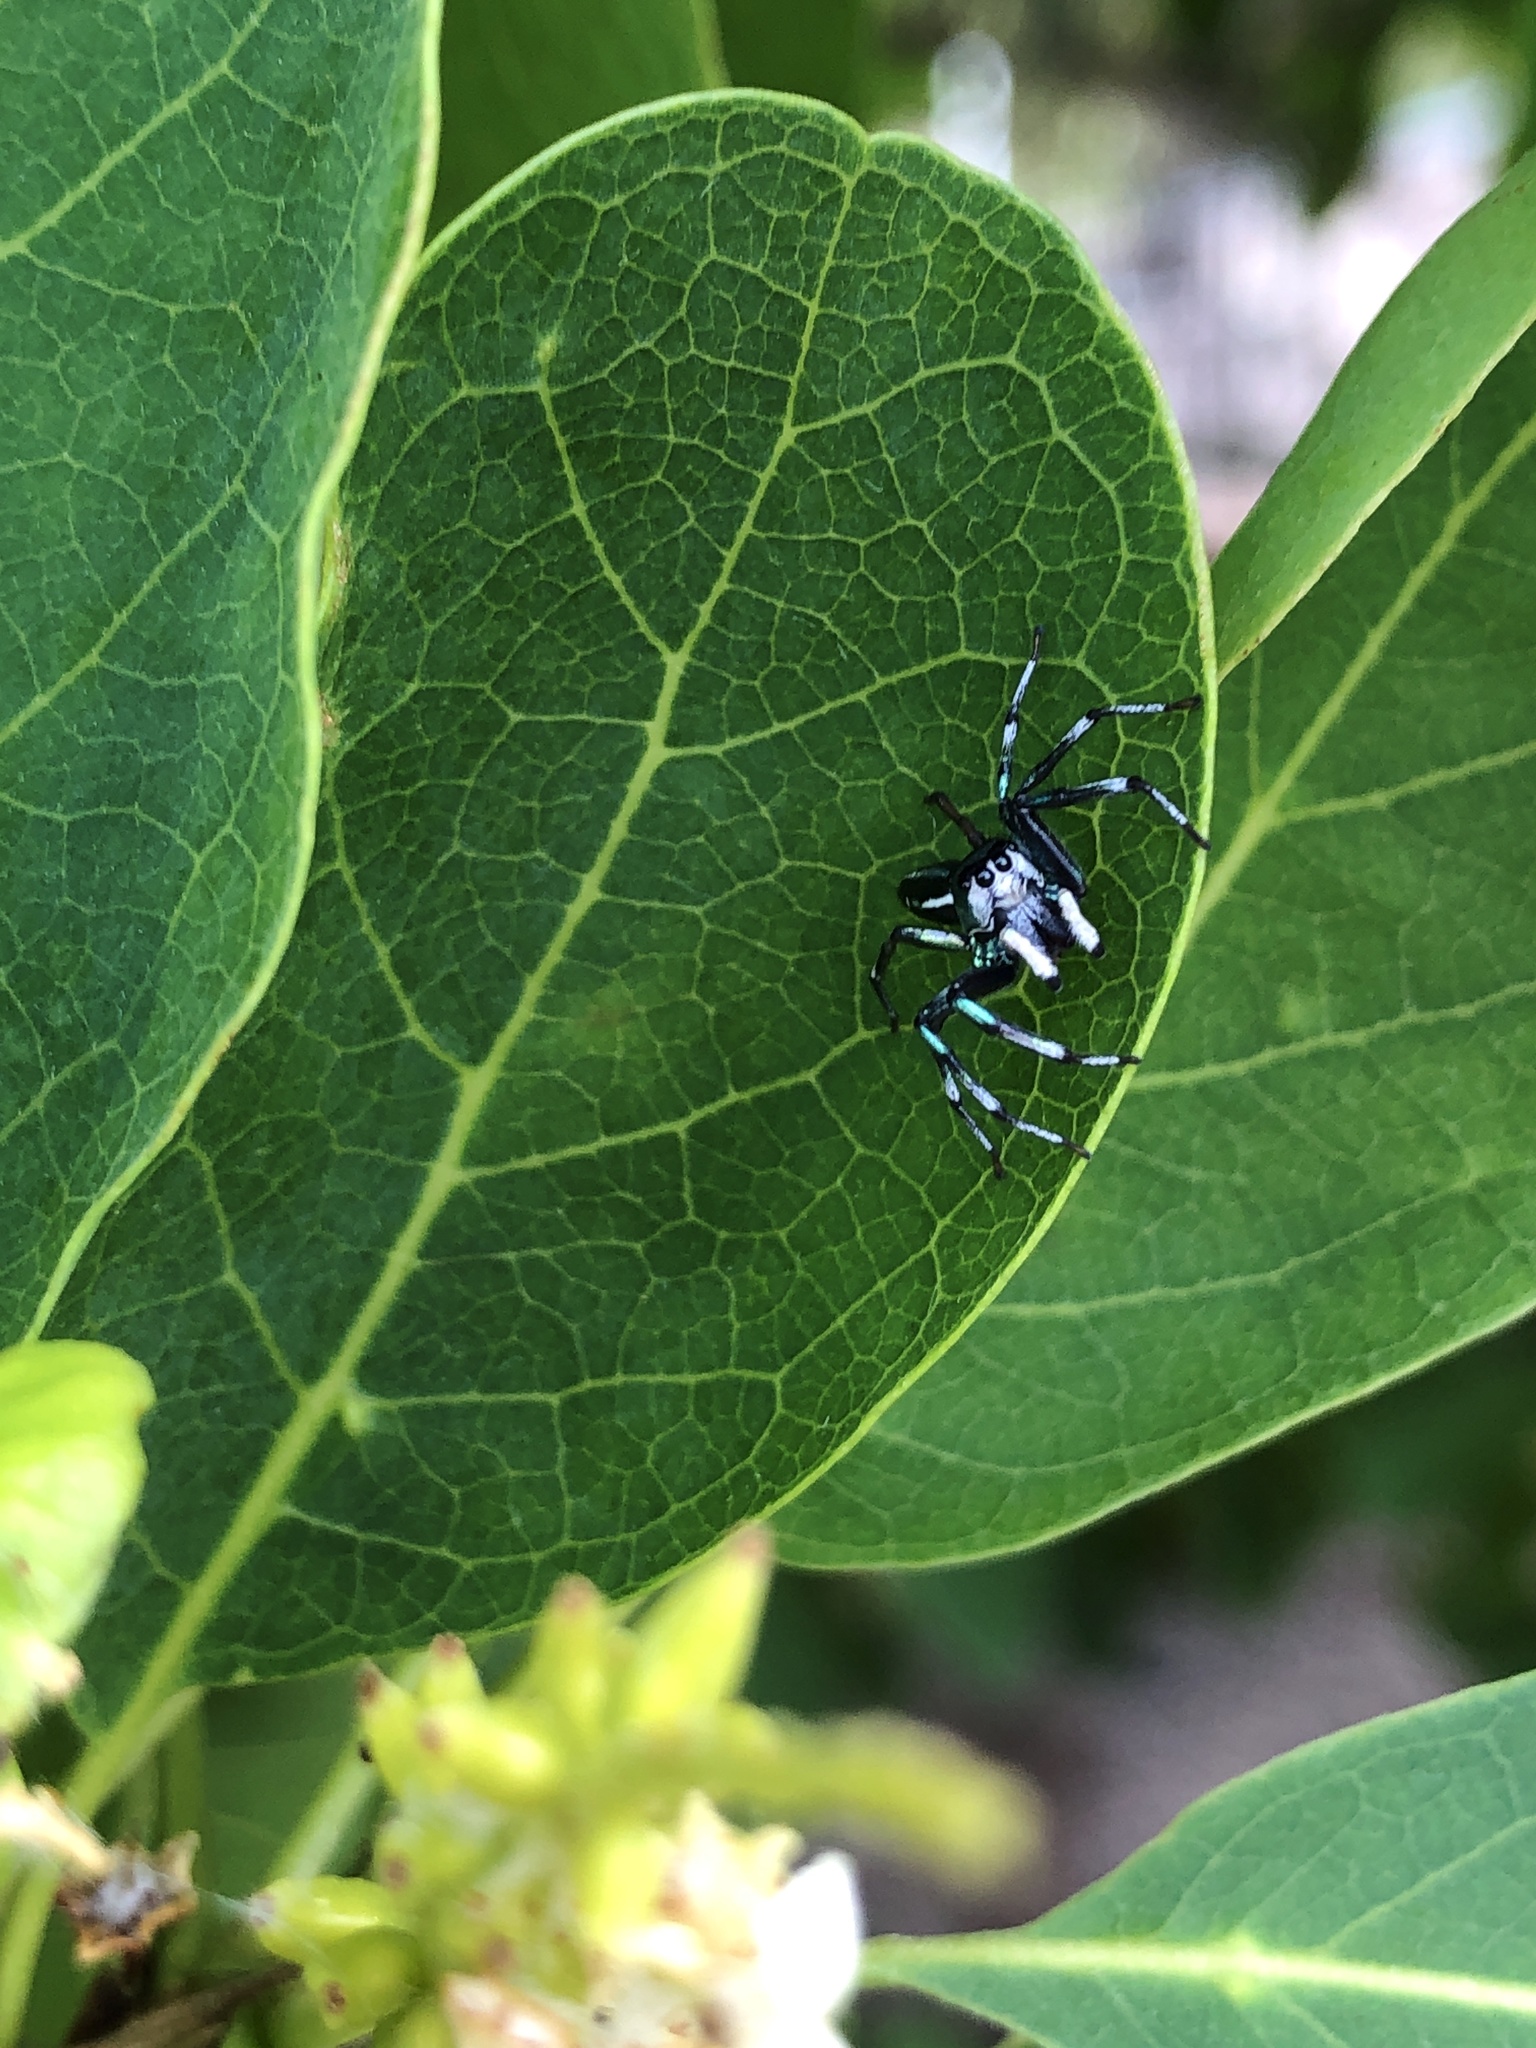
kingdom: Animalia
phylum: Arthropoda
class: Arachnida
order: Araneae
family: Salticidae
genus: Cosmophasis
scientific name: Cosmophasis thalassina
